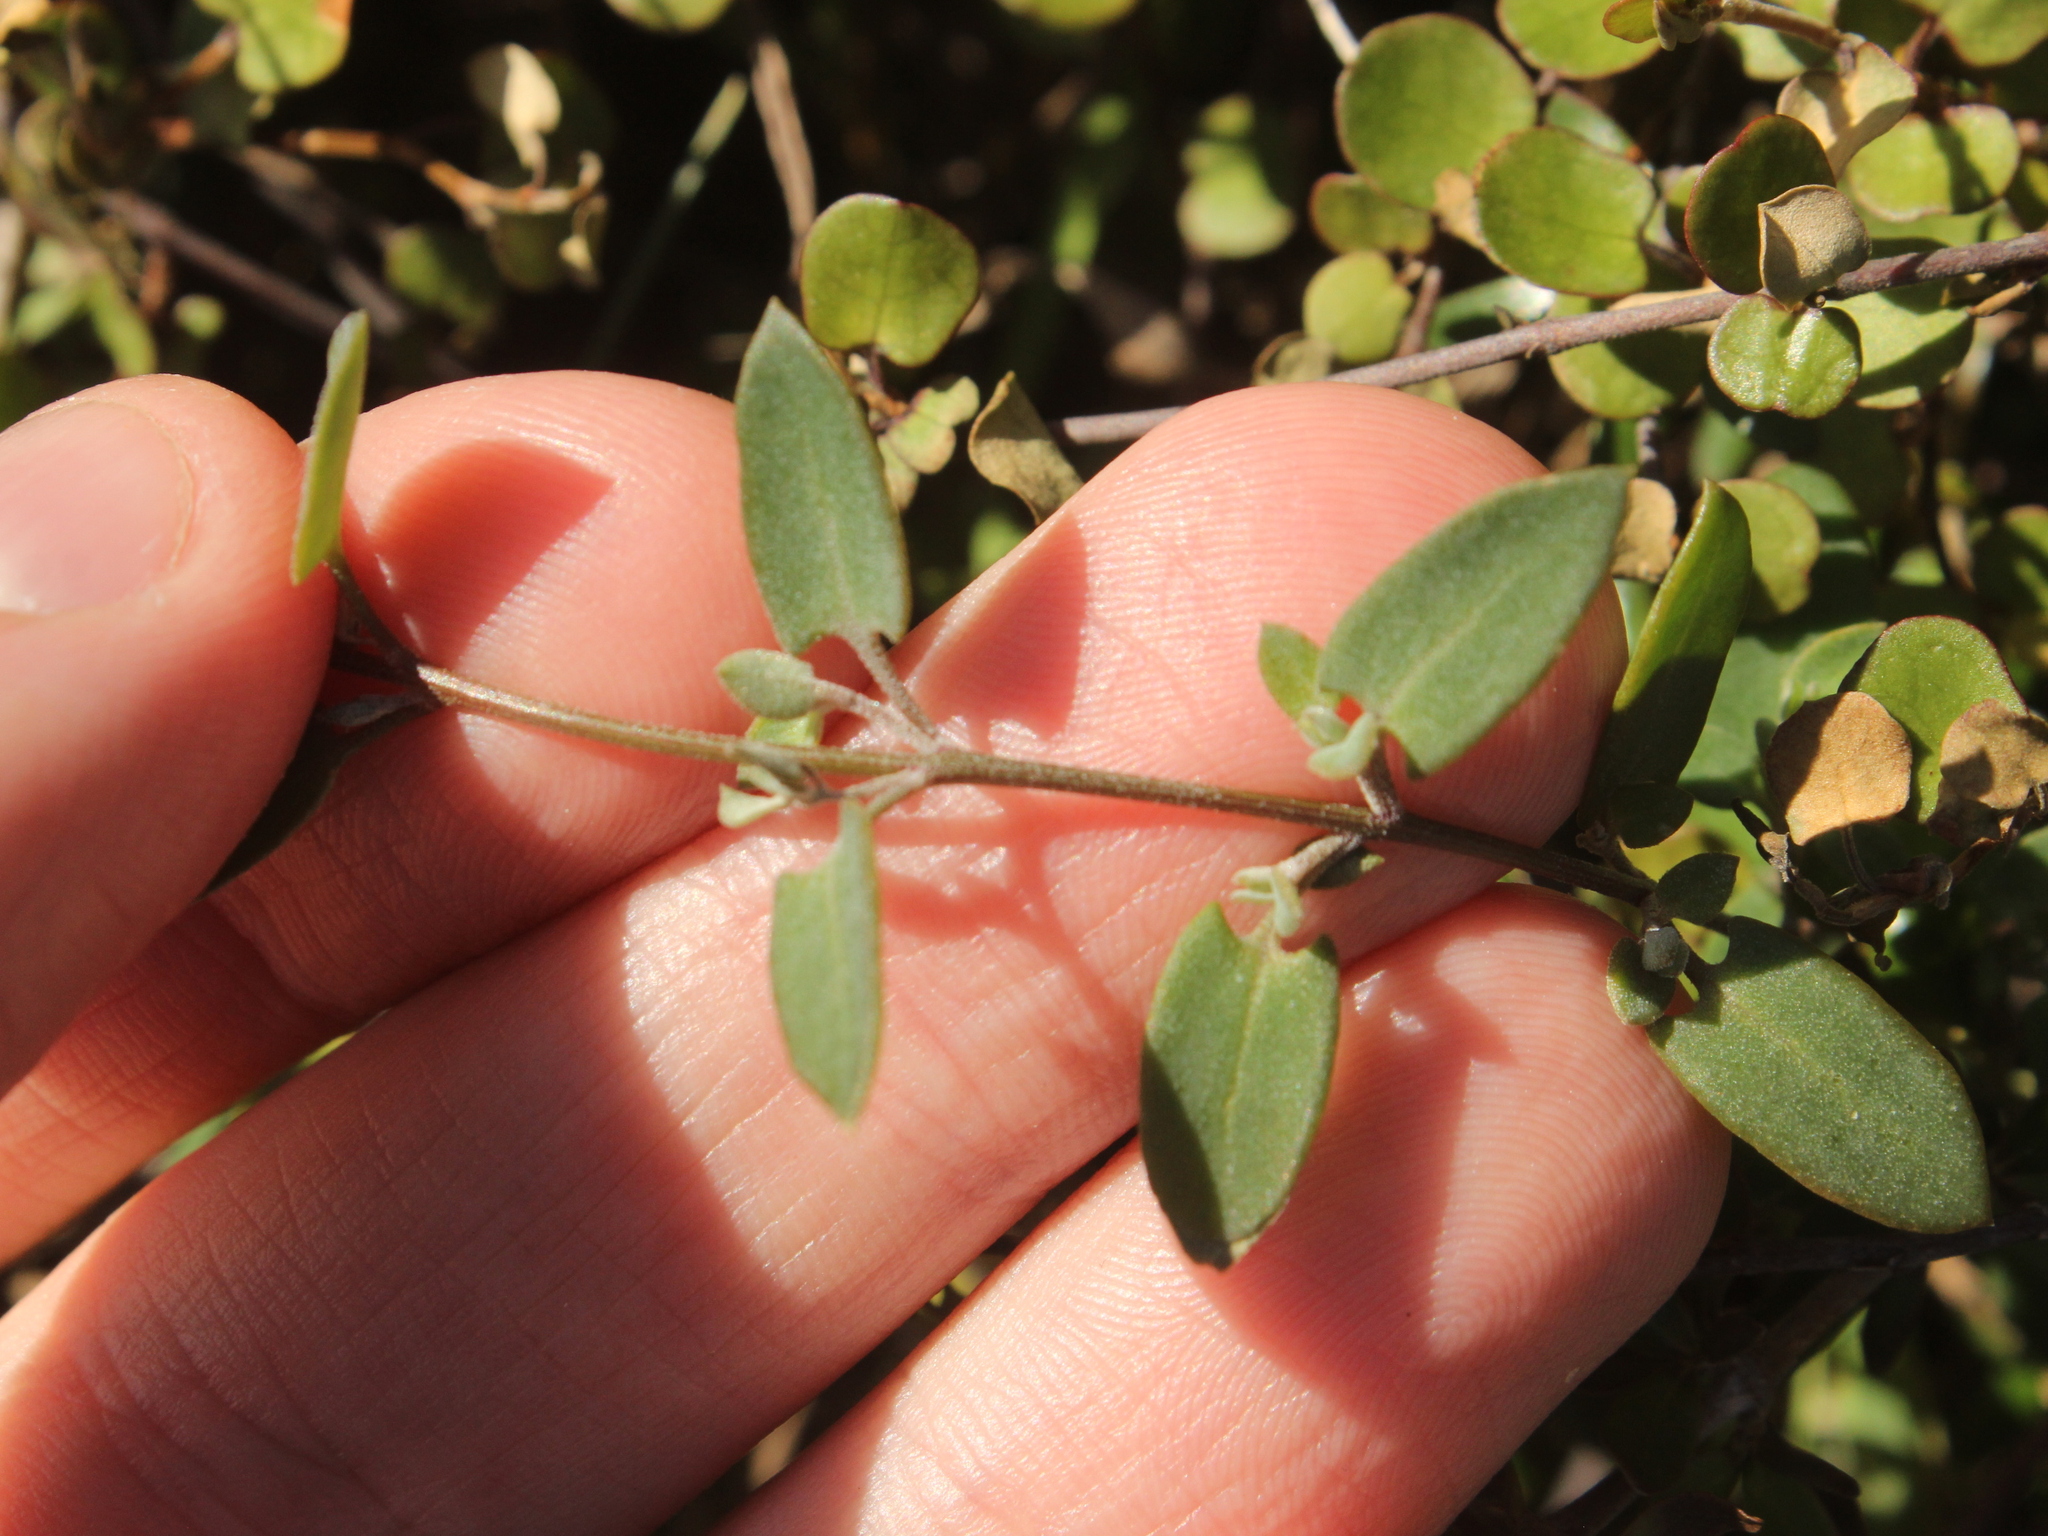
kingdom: Plantae
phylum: Tracheophyta
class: Magnoliopsida
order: Caryophyllales
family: Amaranthaceae
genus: Chenopodium
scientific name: Chenopodium triandrum
